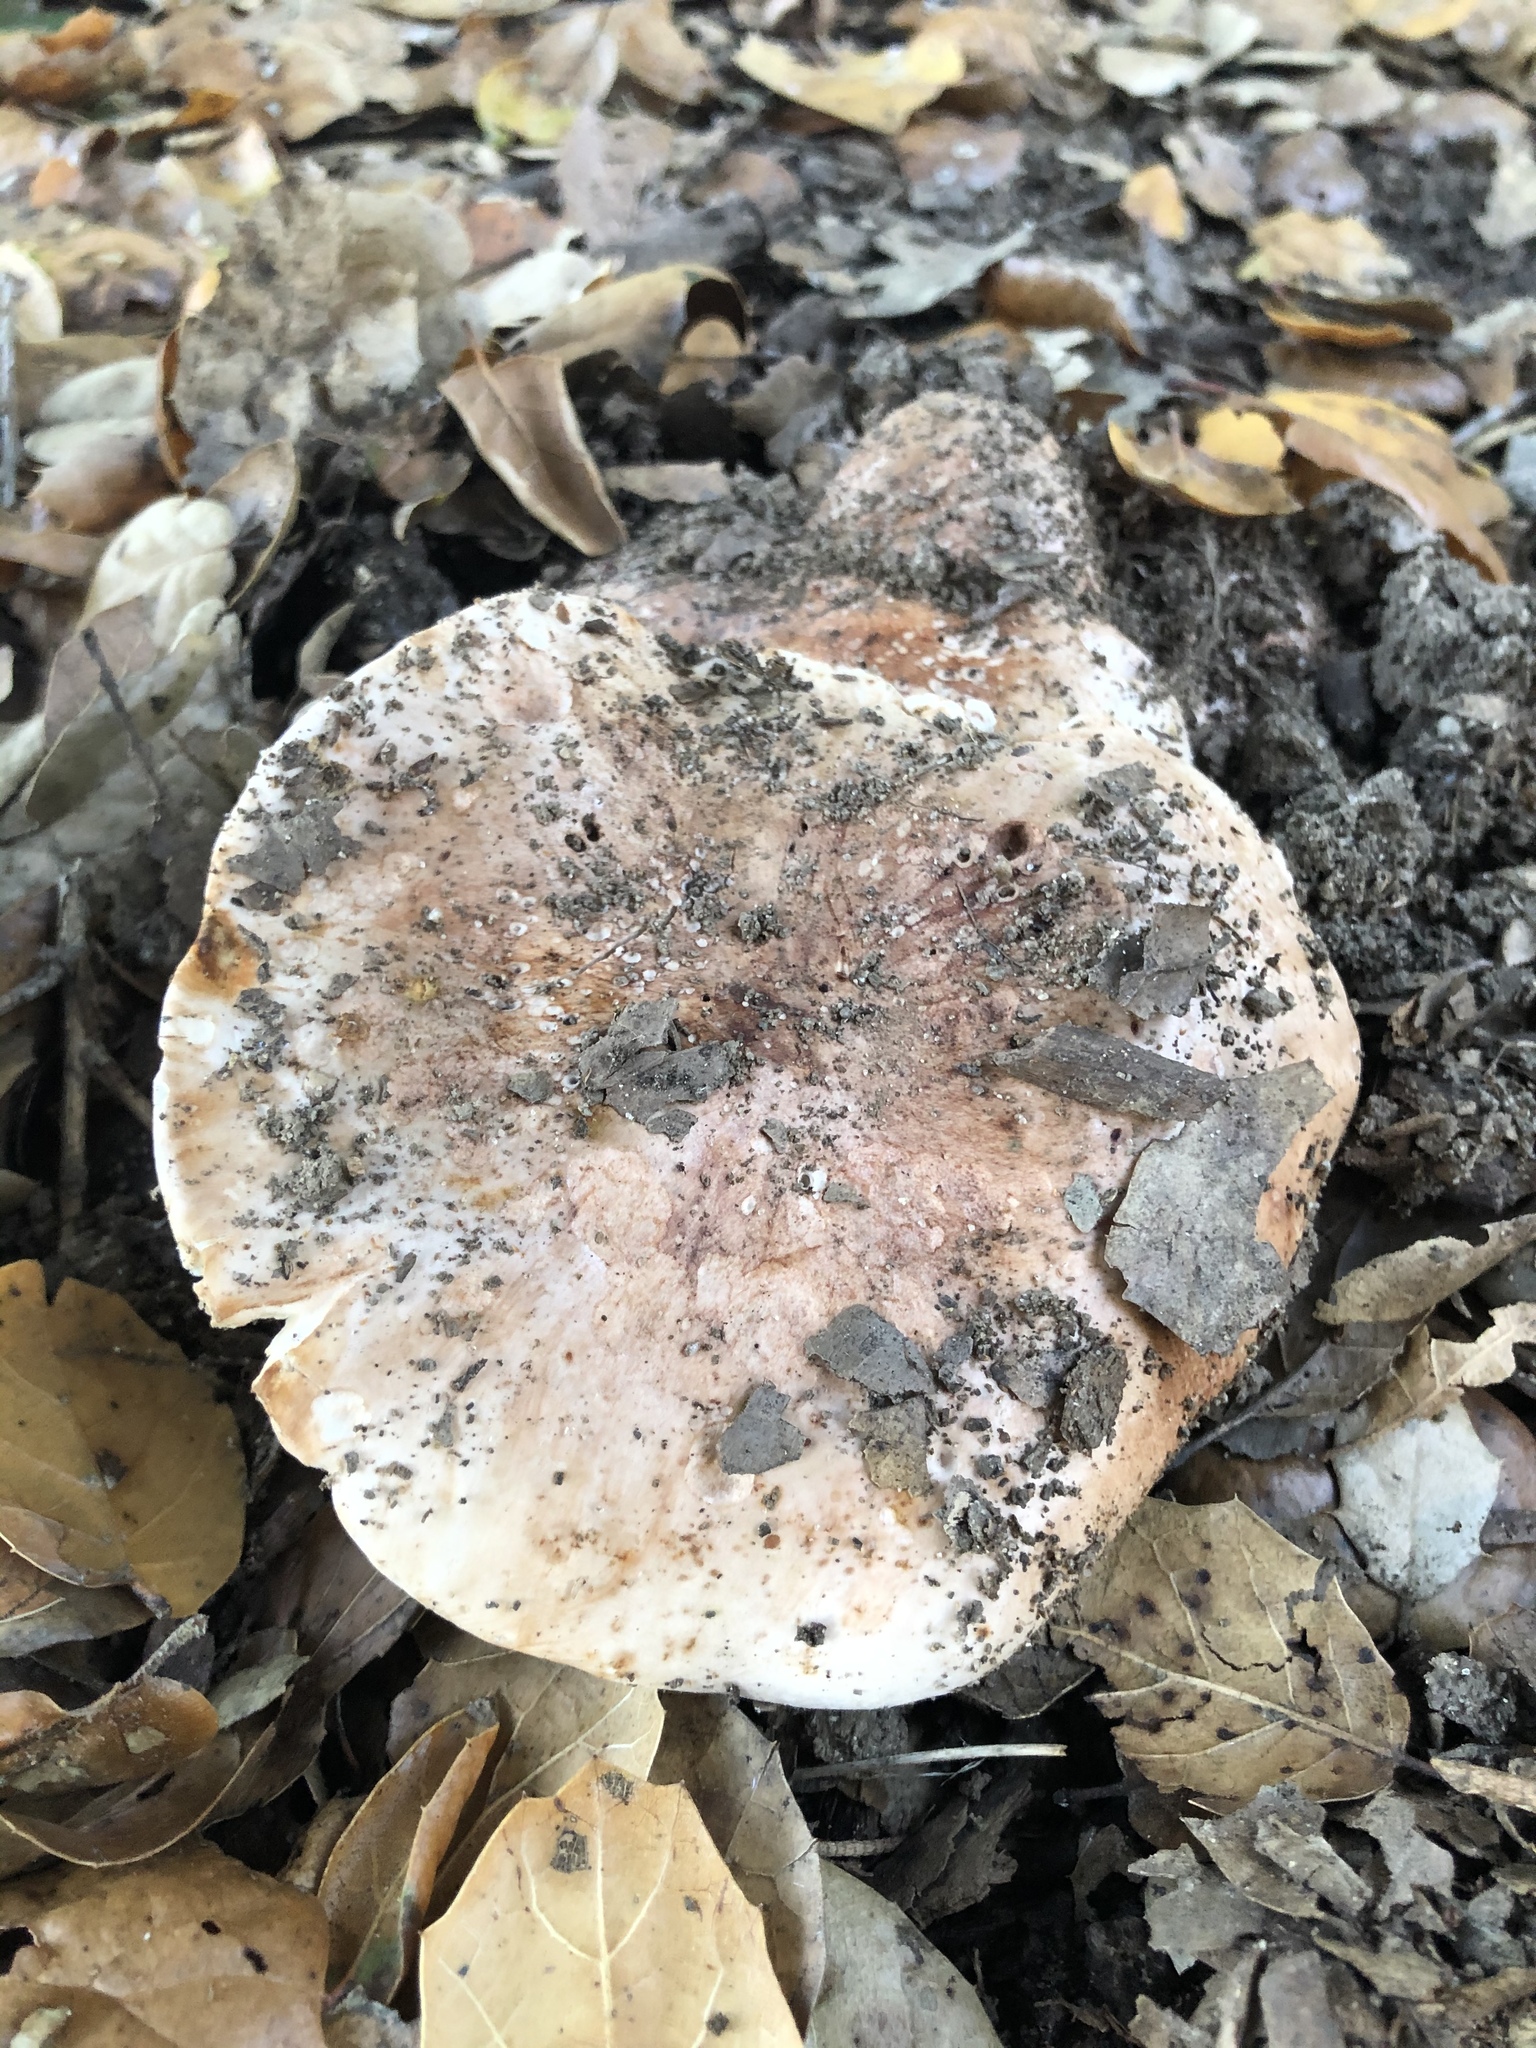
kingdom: Fungi
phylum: Basidiomycota
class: Agaricomycetes
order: Agaricales
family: Tricholomataceae
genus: Melanoleuca
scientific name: Melanoleuca dryophila
